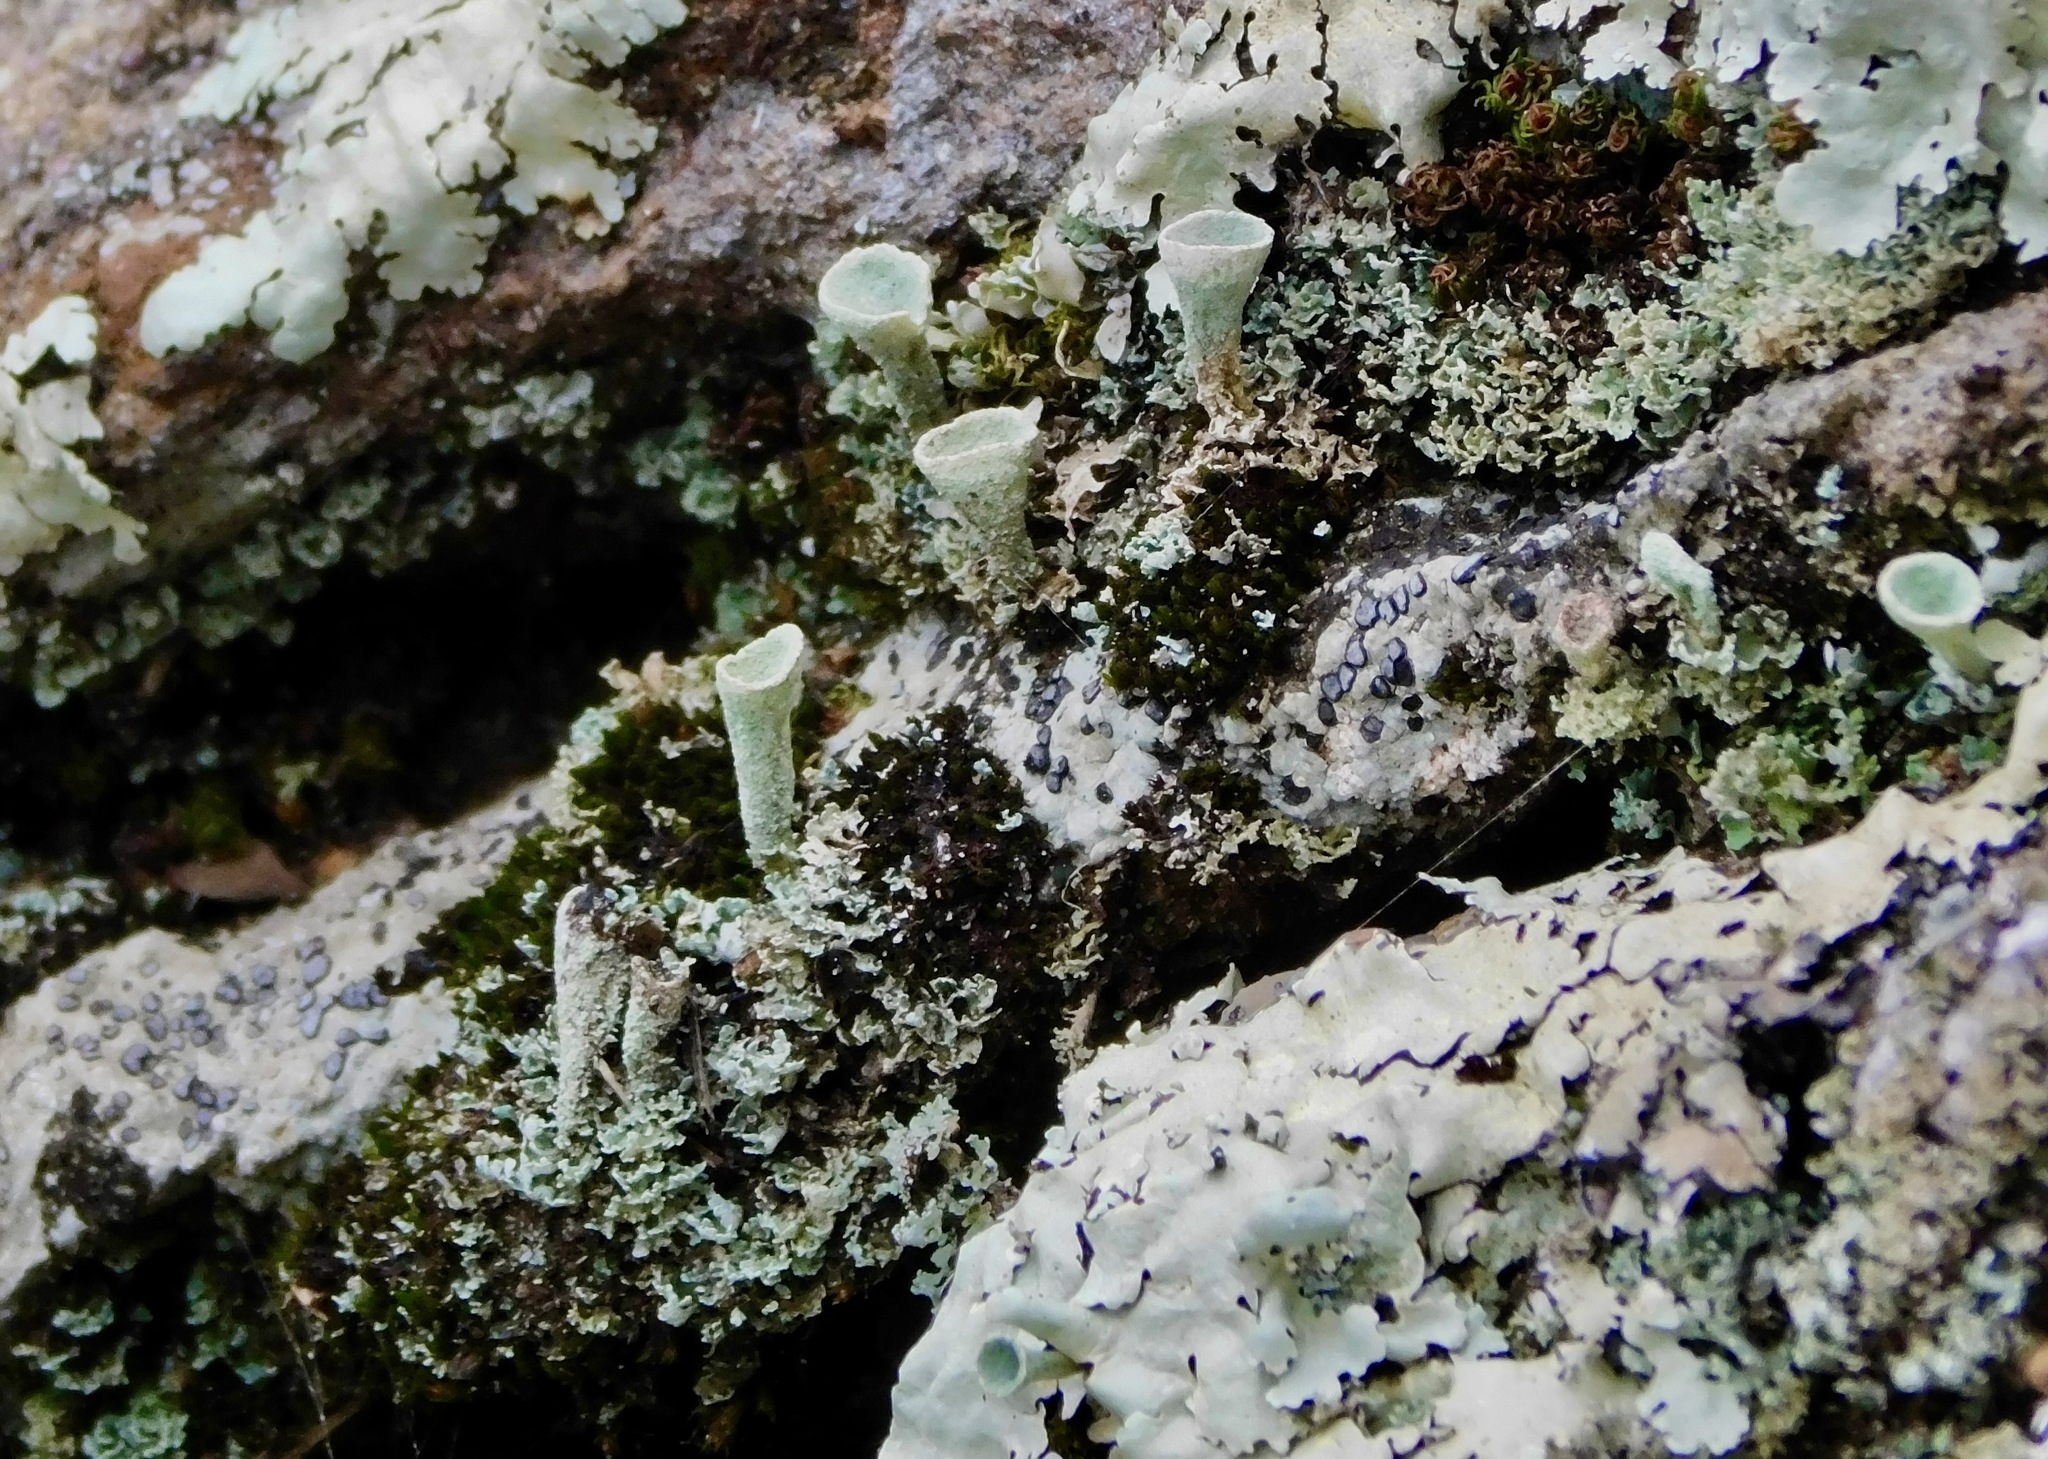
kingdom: Fungi
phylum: Ascomycota
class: Lecanoromycetes
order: Lecanorales
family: Cladoniaceae
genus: Cladonia
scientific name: Cladonia grayi
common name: Gray's cup lichen
